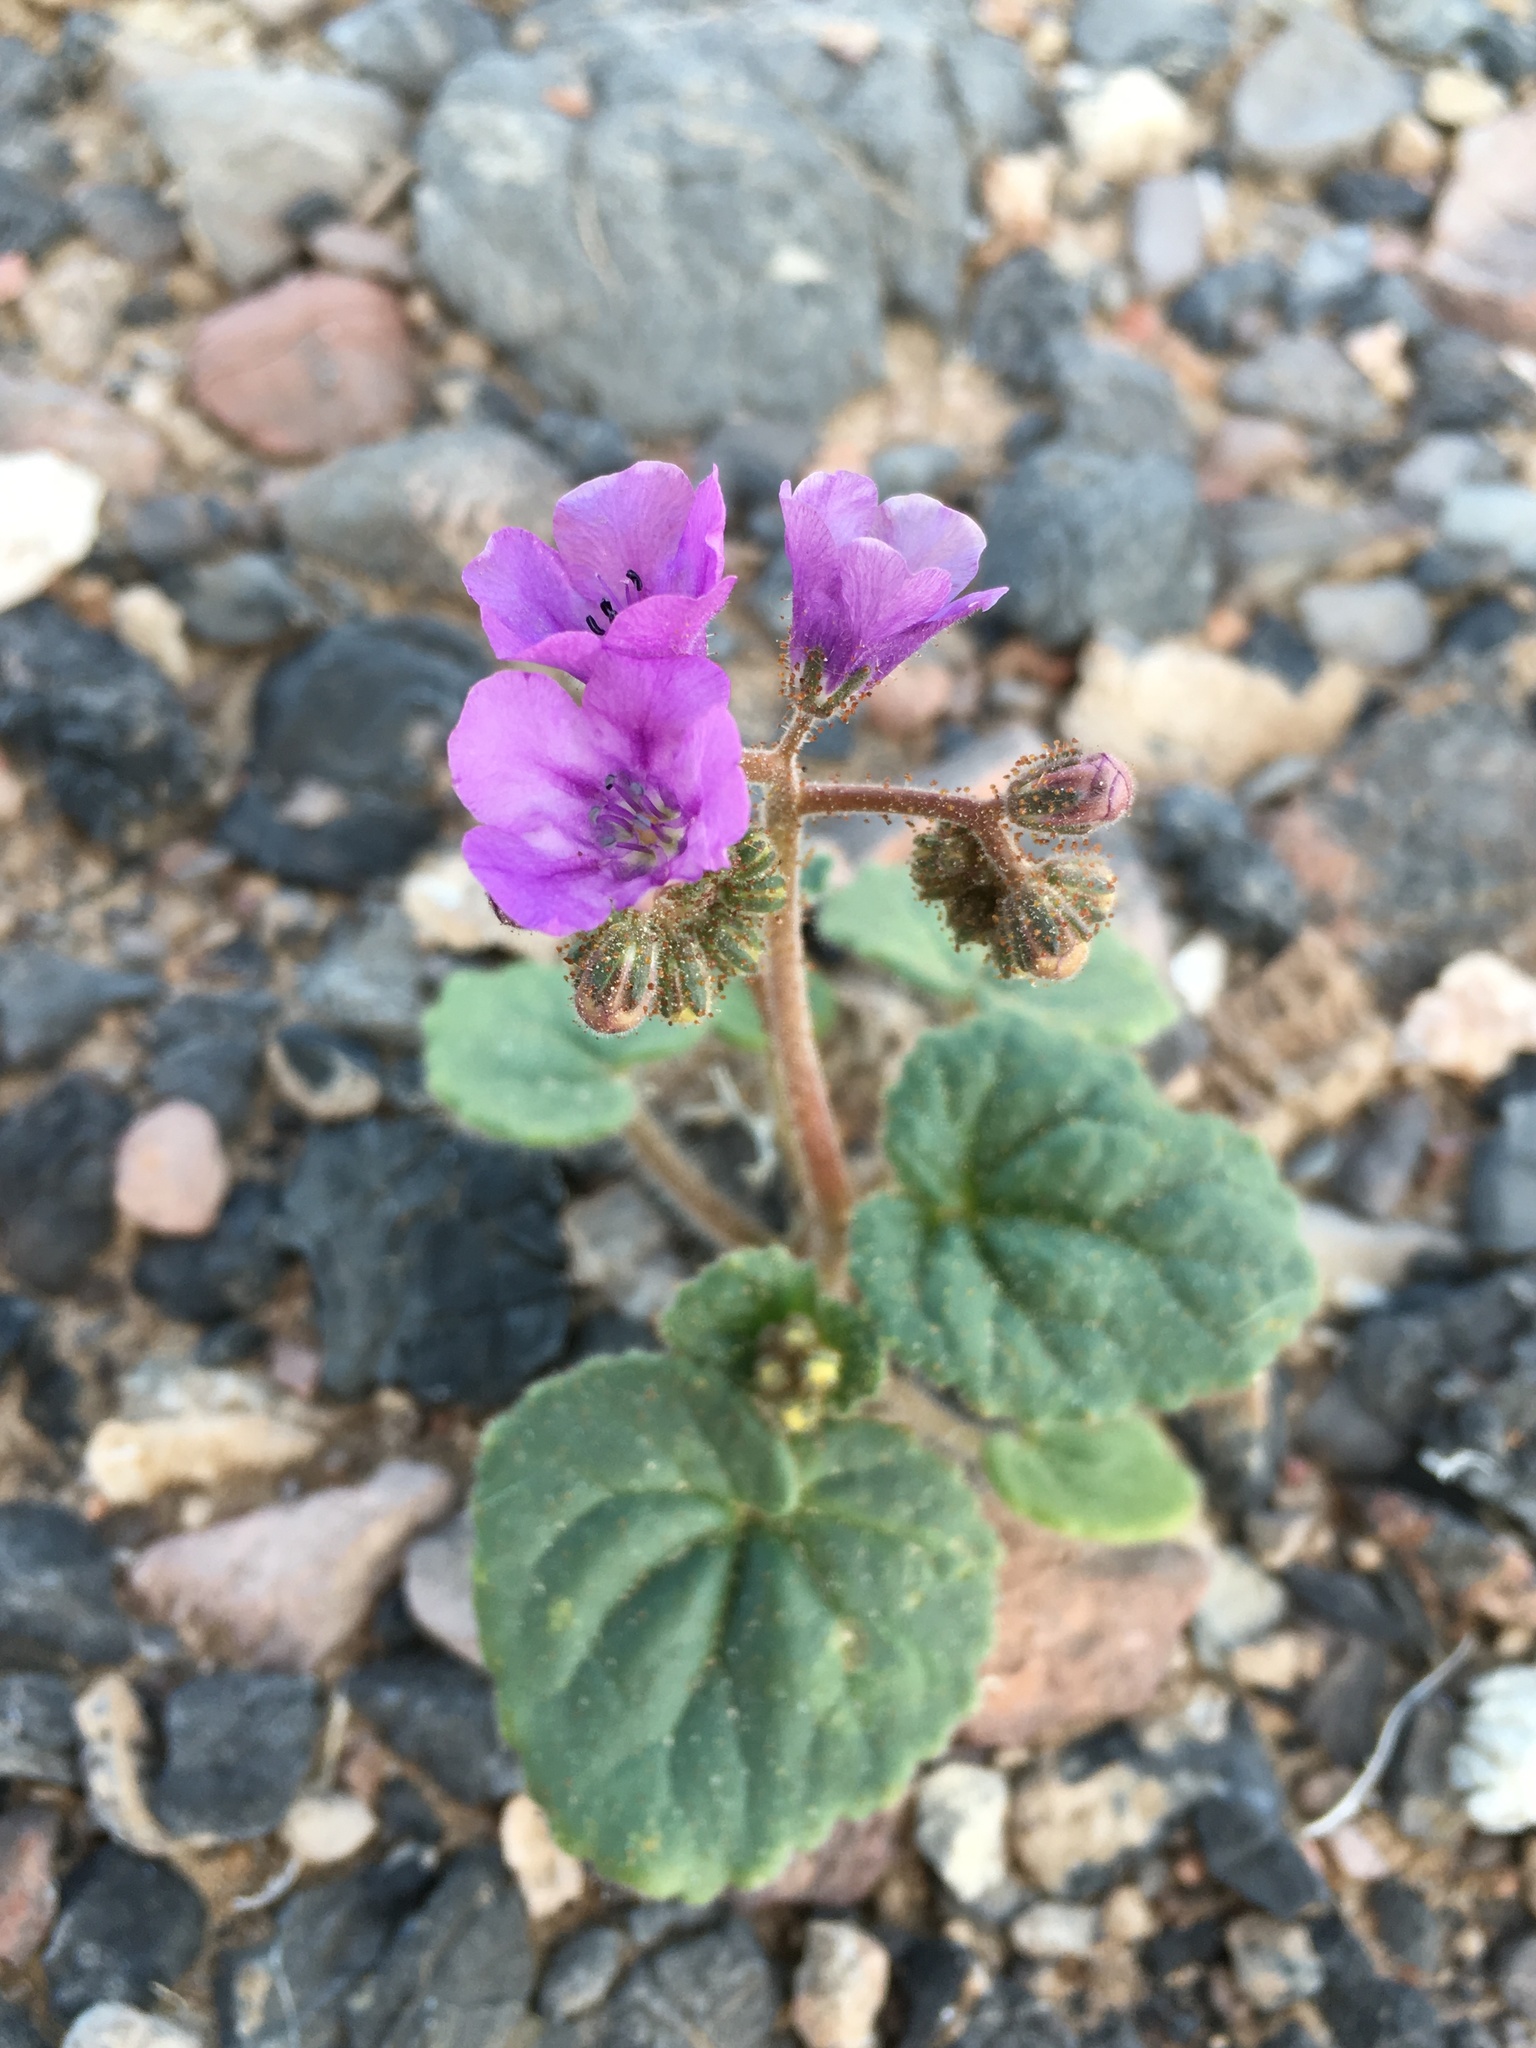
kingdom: Plantae
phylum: Tracheophyta
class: Magnoliopsida
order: Boraginales
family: Hydrophyllaceae
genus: Phacelia
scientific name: Phacelia calthifolia
